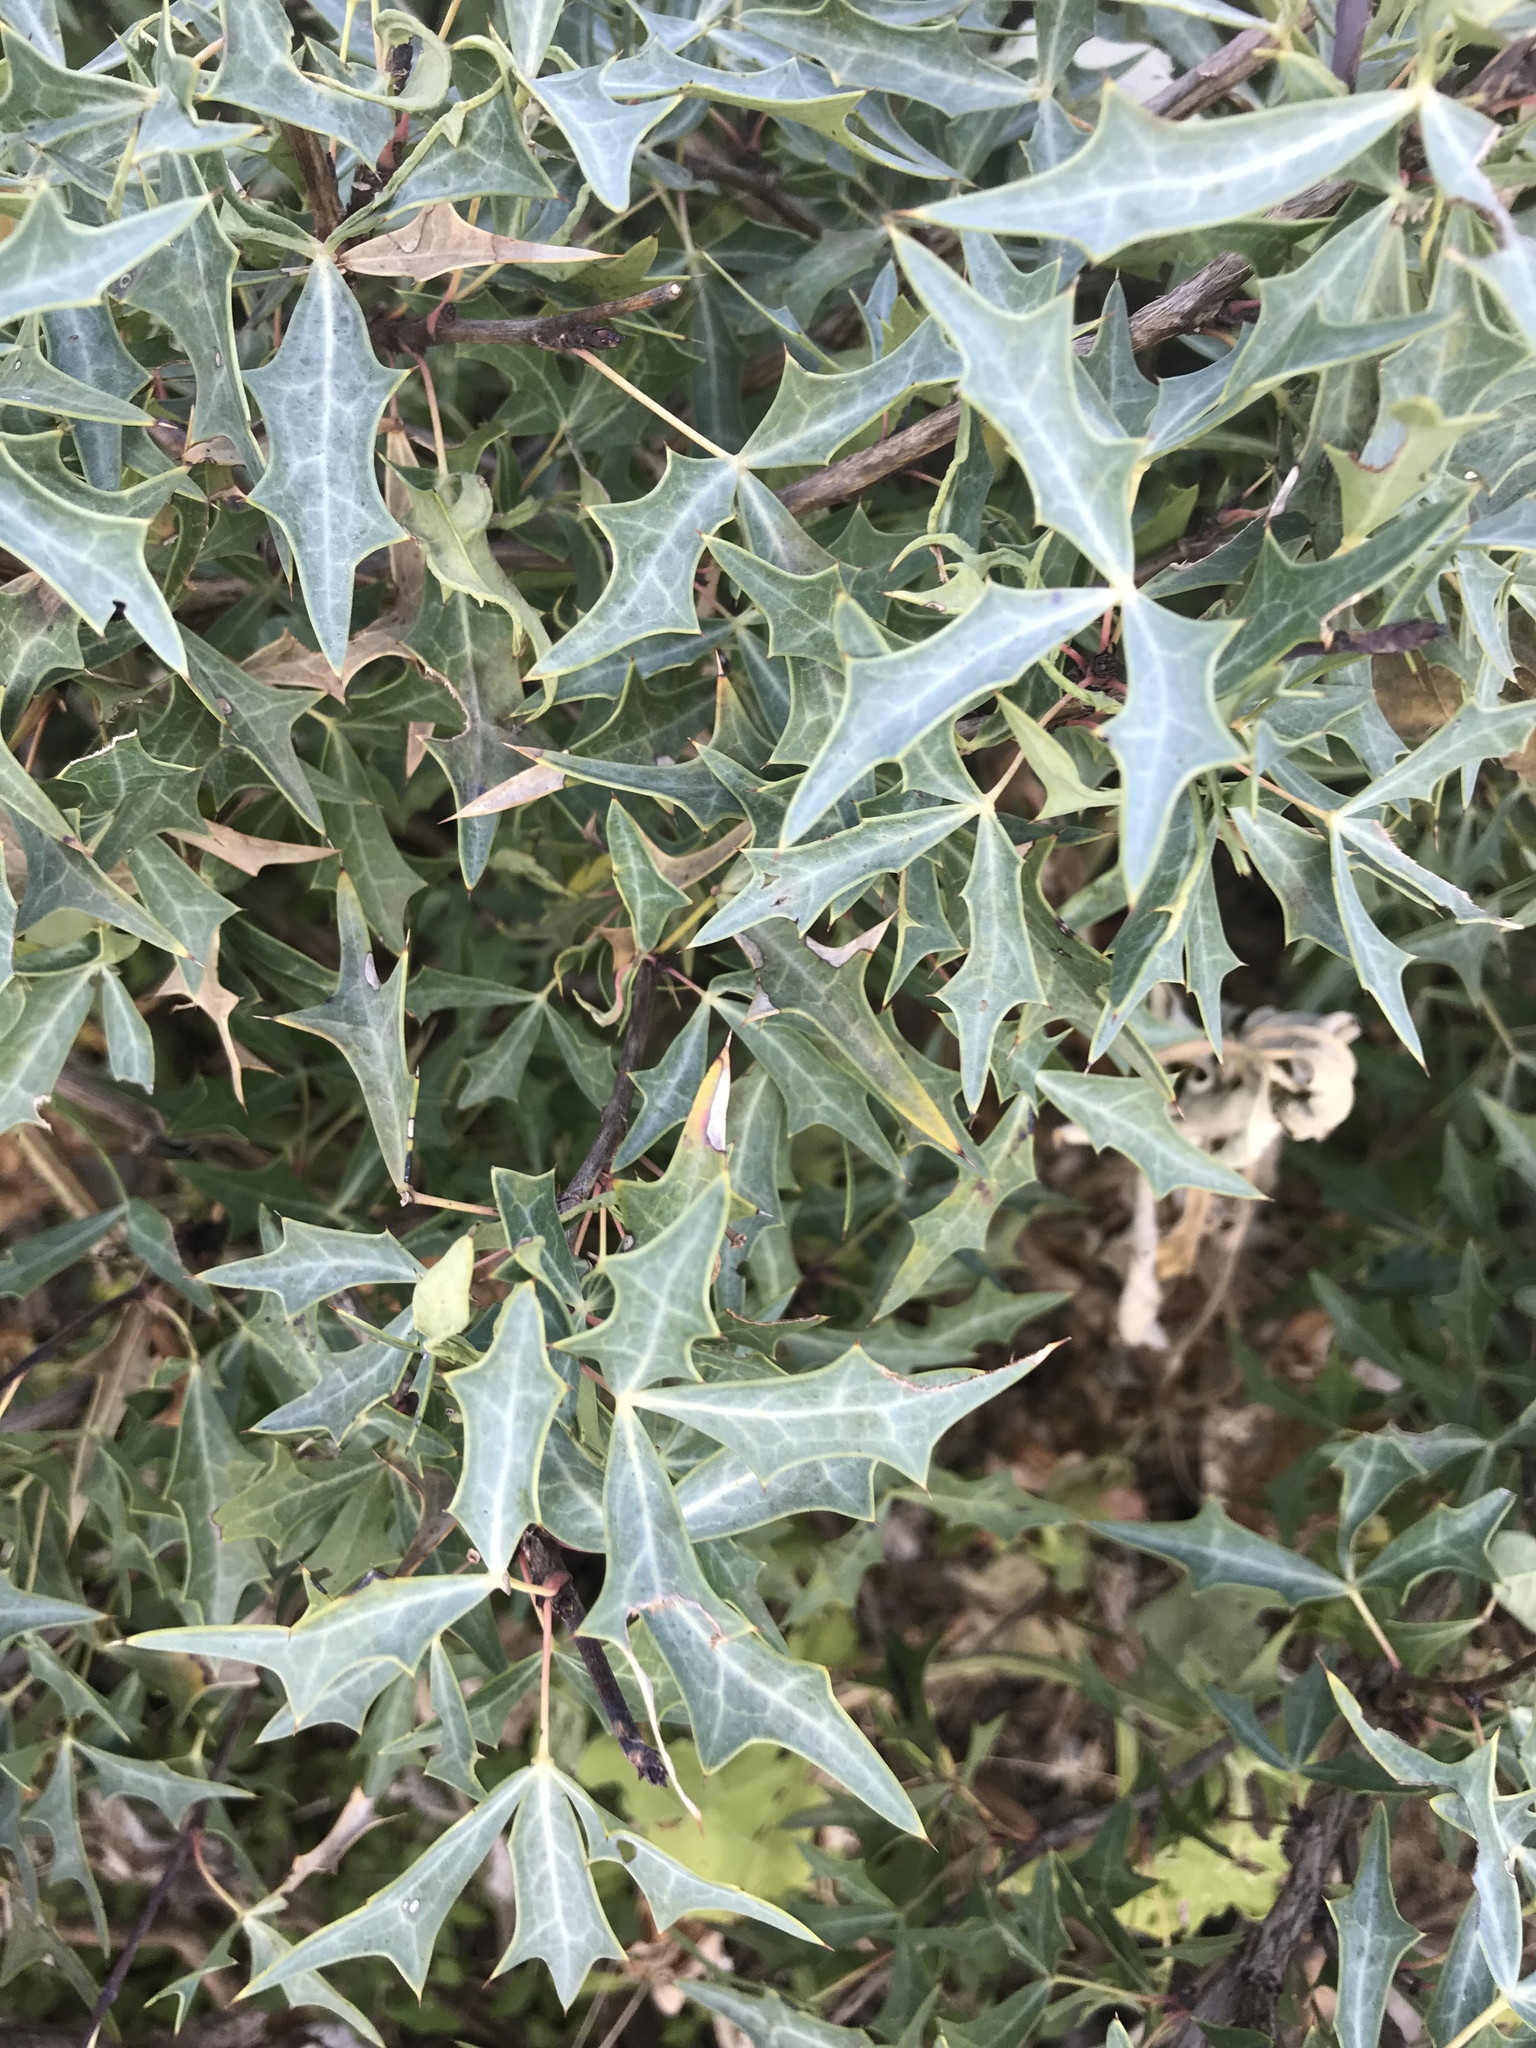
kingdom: Plantae
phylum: Tracheophyta
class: Magnoliopsida
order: Ranunculales
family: Berberidaceae
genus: Alloberberis
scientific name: Alloberberis trifoliolata
